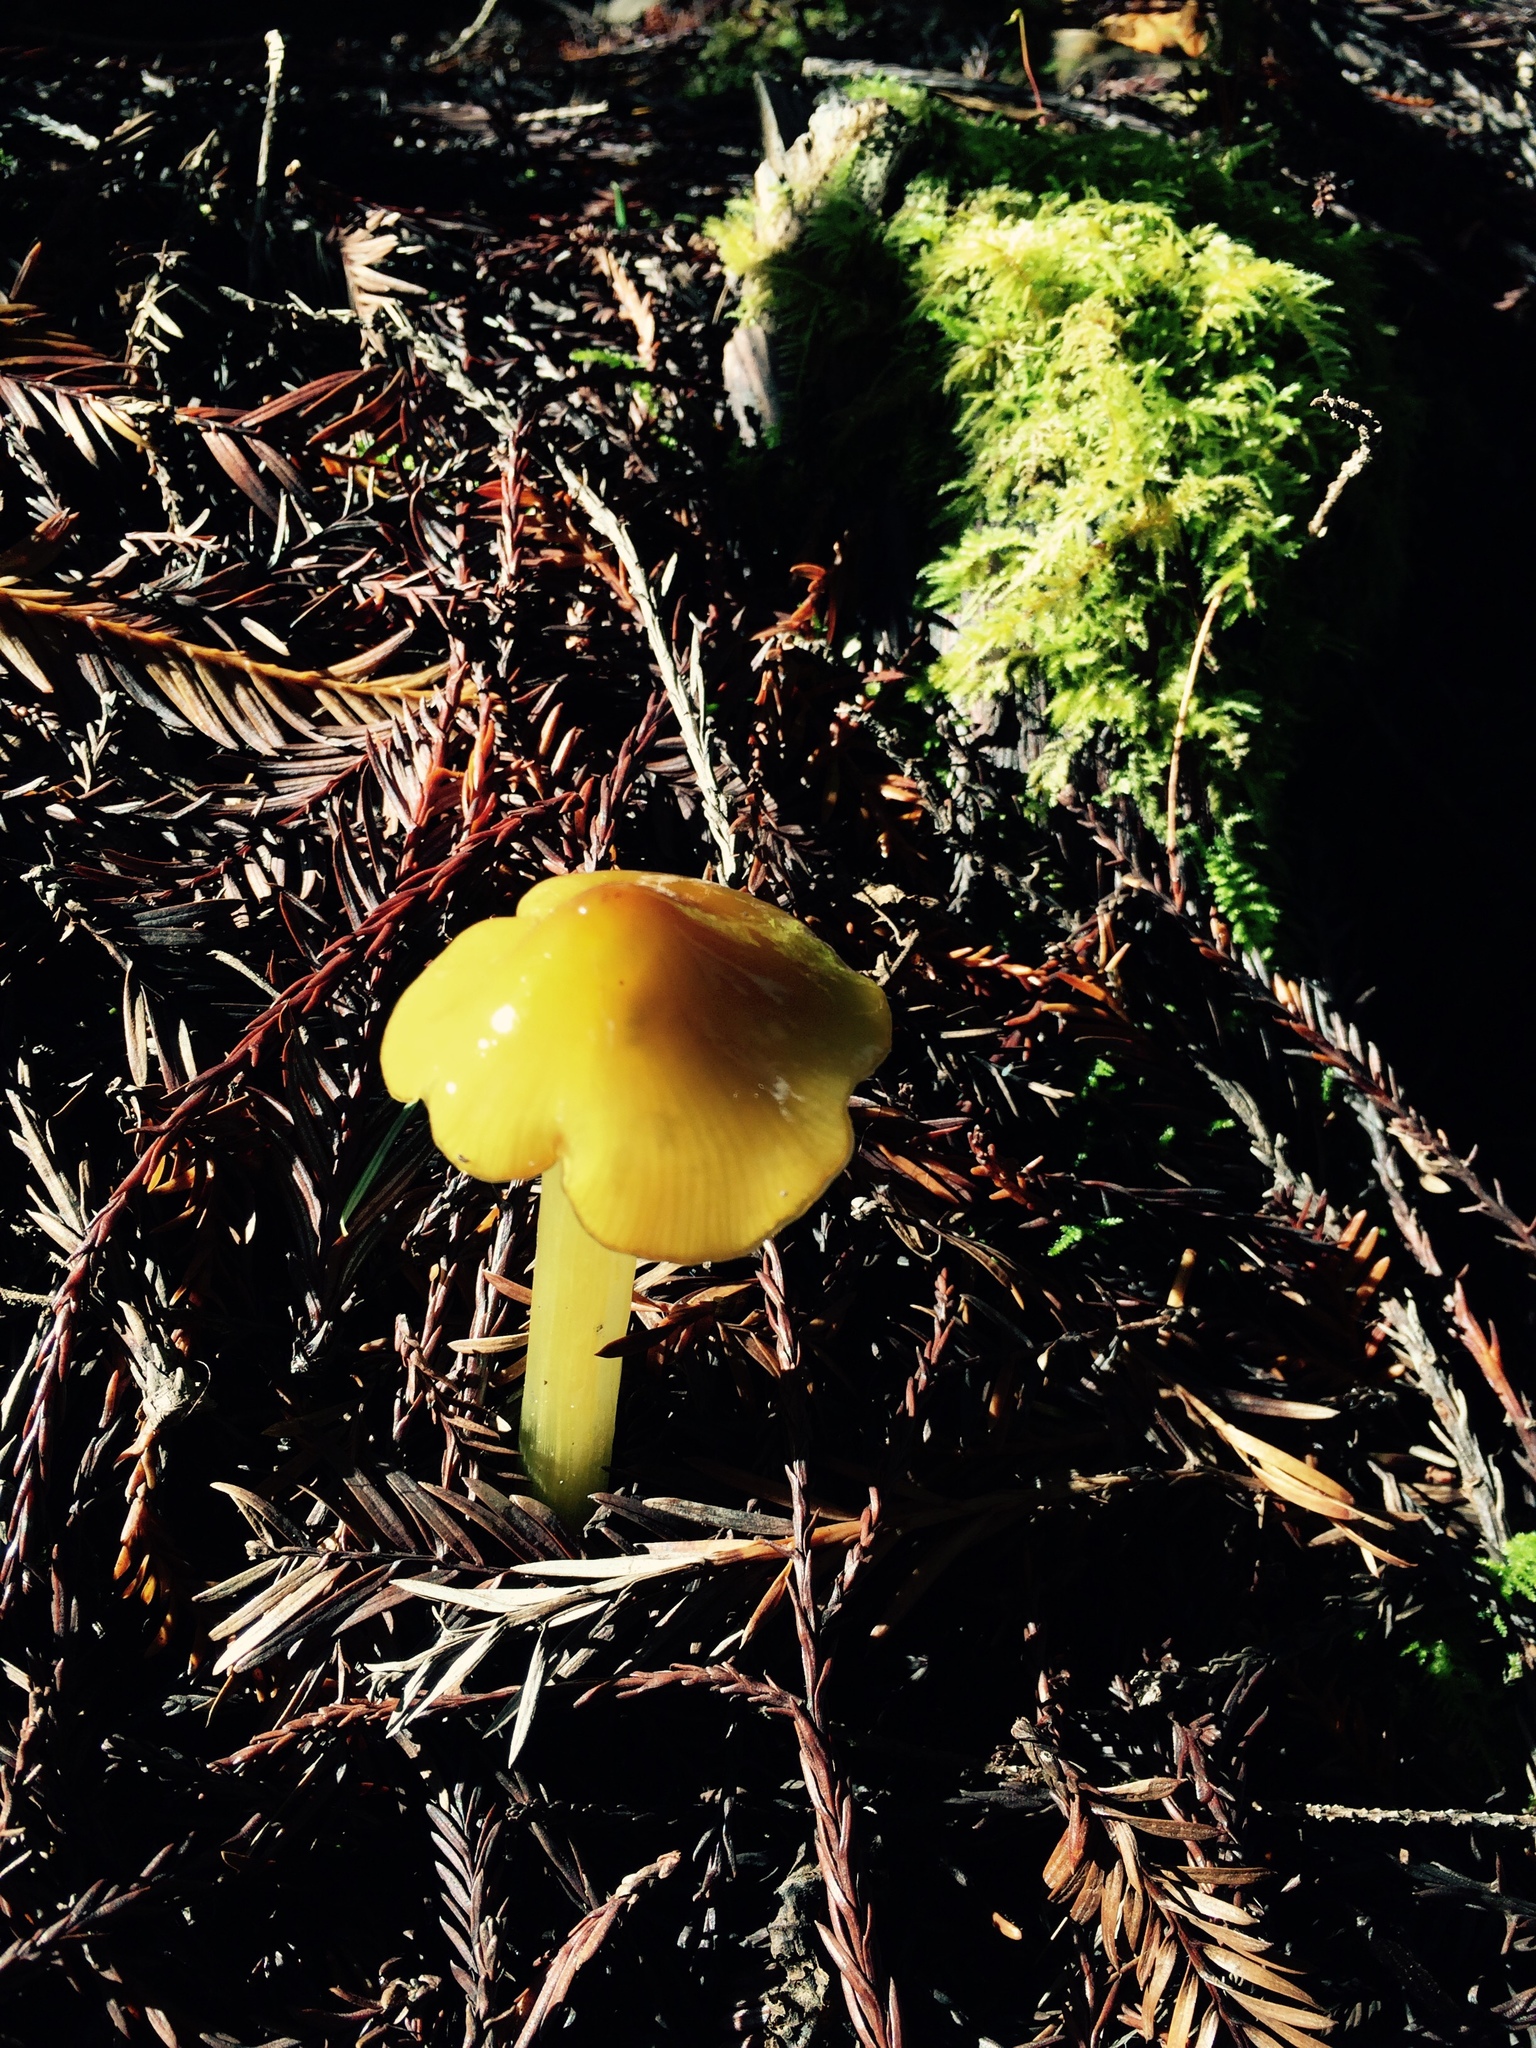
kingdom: Fungi
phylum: Basidiomycota
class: Agaricomycetes
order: Agaricales
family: Hygrophoraceae
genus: Hygrocybe
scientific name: Hygrocybe acutoconica
